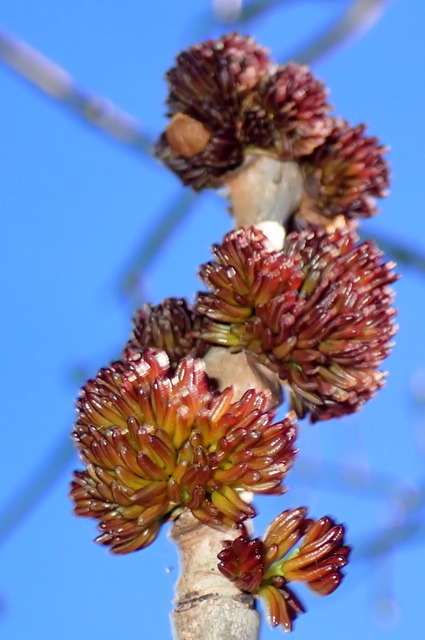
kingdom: Plantae
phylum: Tracheophyta
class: Magnoliopsida
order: Lamiales
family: Oleaceae
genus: Fraxinus
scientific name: Fraxinus profunda
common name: Pumpkin ash
